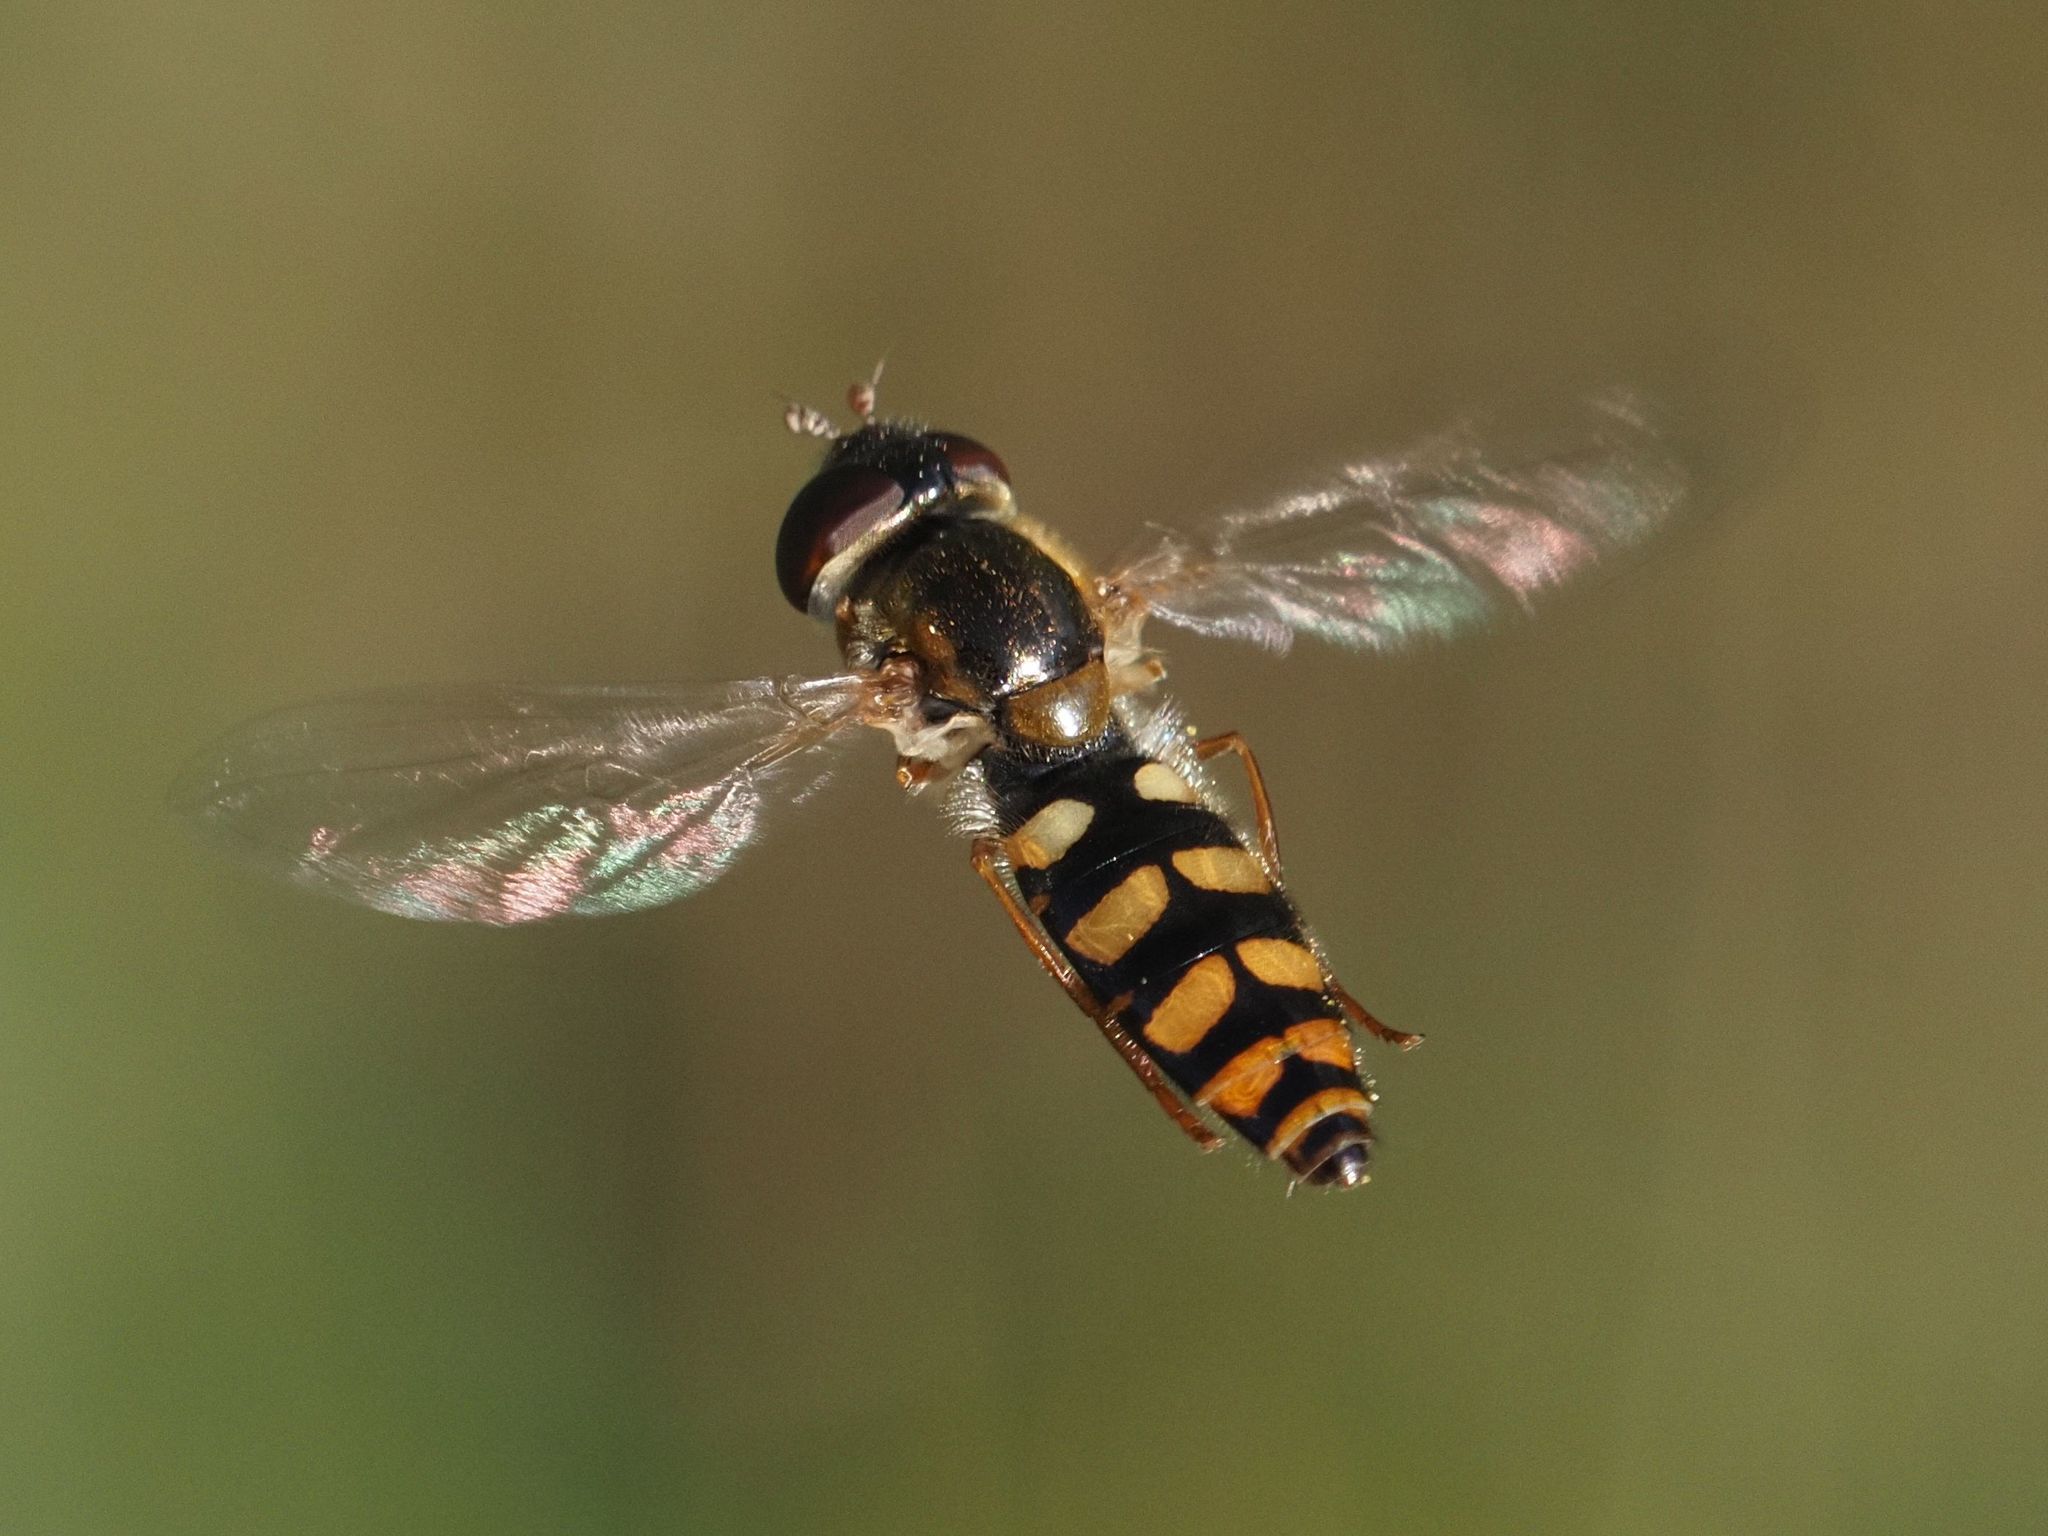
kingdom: Animalia
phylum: Arthropoda
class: Insecta
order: Diptera
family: Syrphidae
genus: Epistrophella
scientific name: Epistrophella euchromus
